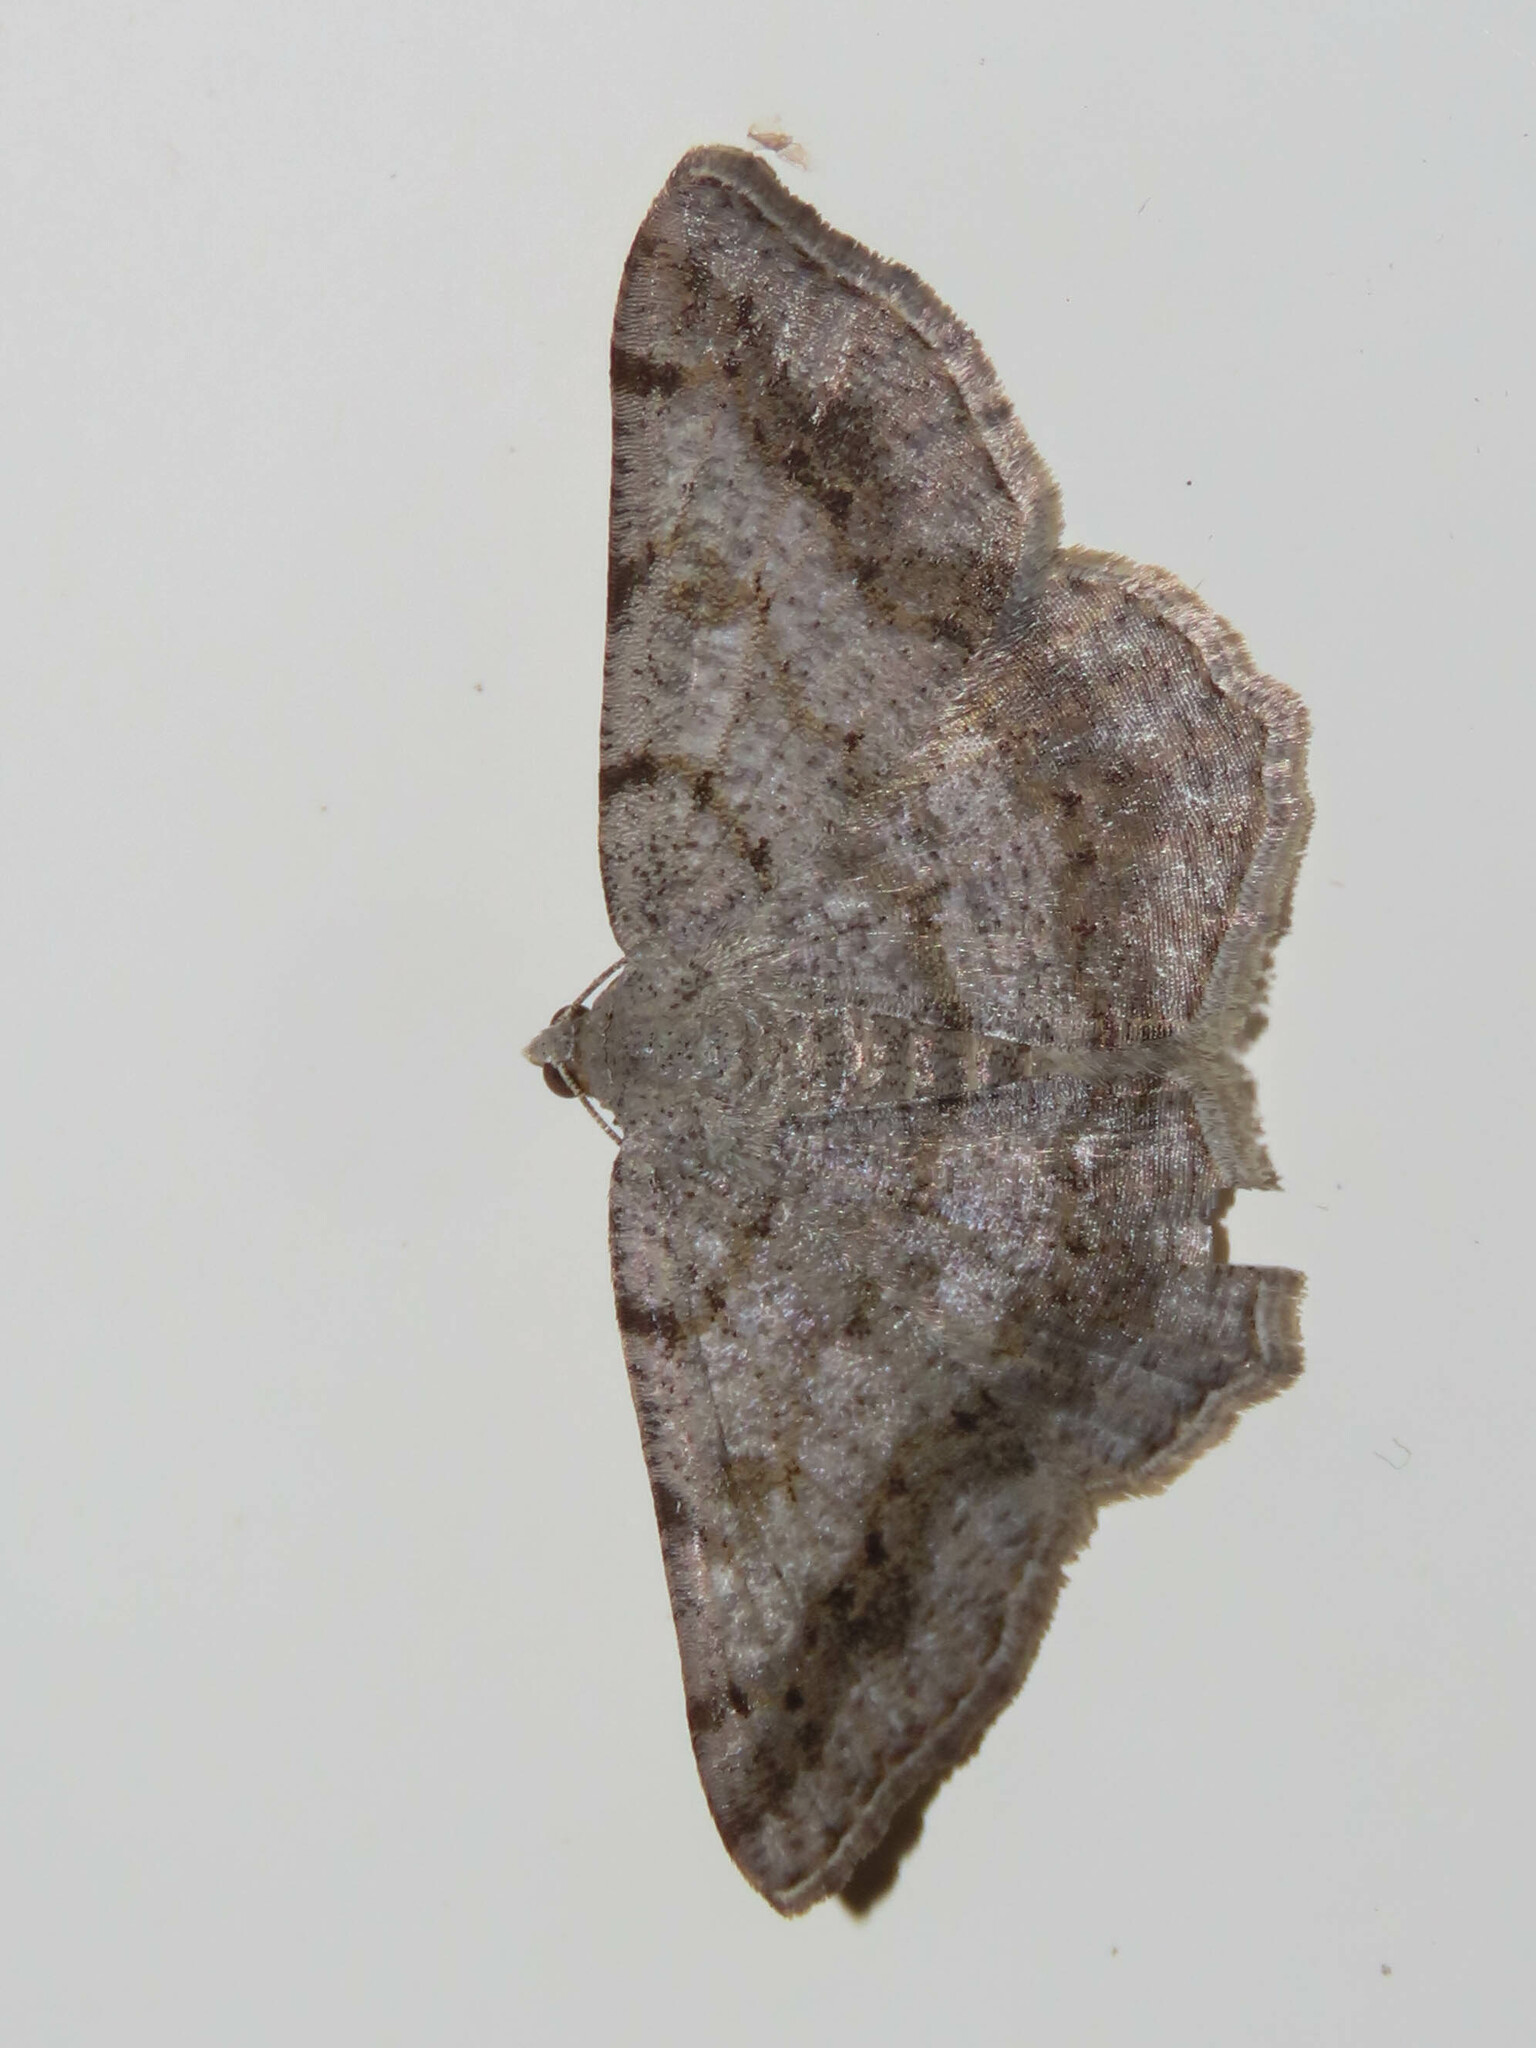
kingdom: Animalia
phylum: Arthropoda
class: Insecta
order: Lepidoptera
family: Geometridae
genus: Digrammia
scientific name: Digrammia ocellinata
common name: Faint-spotted angle
